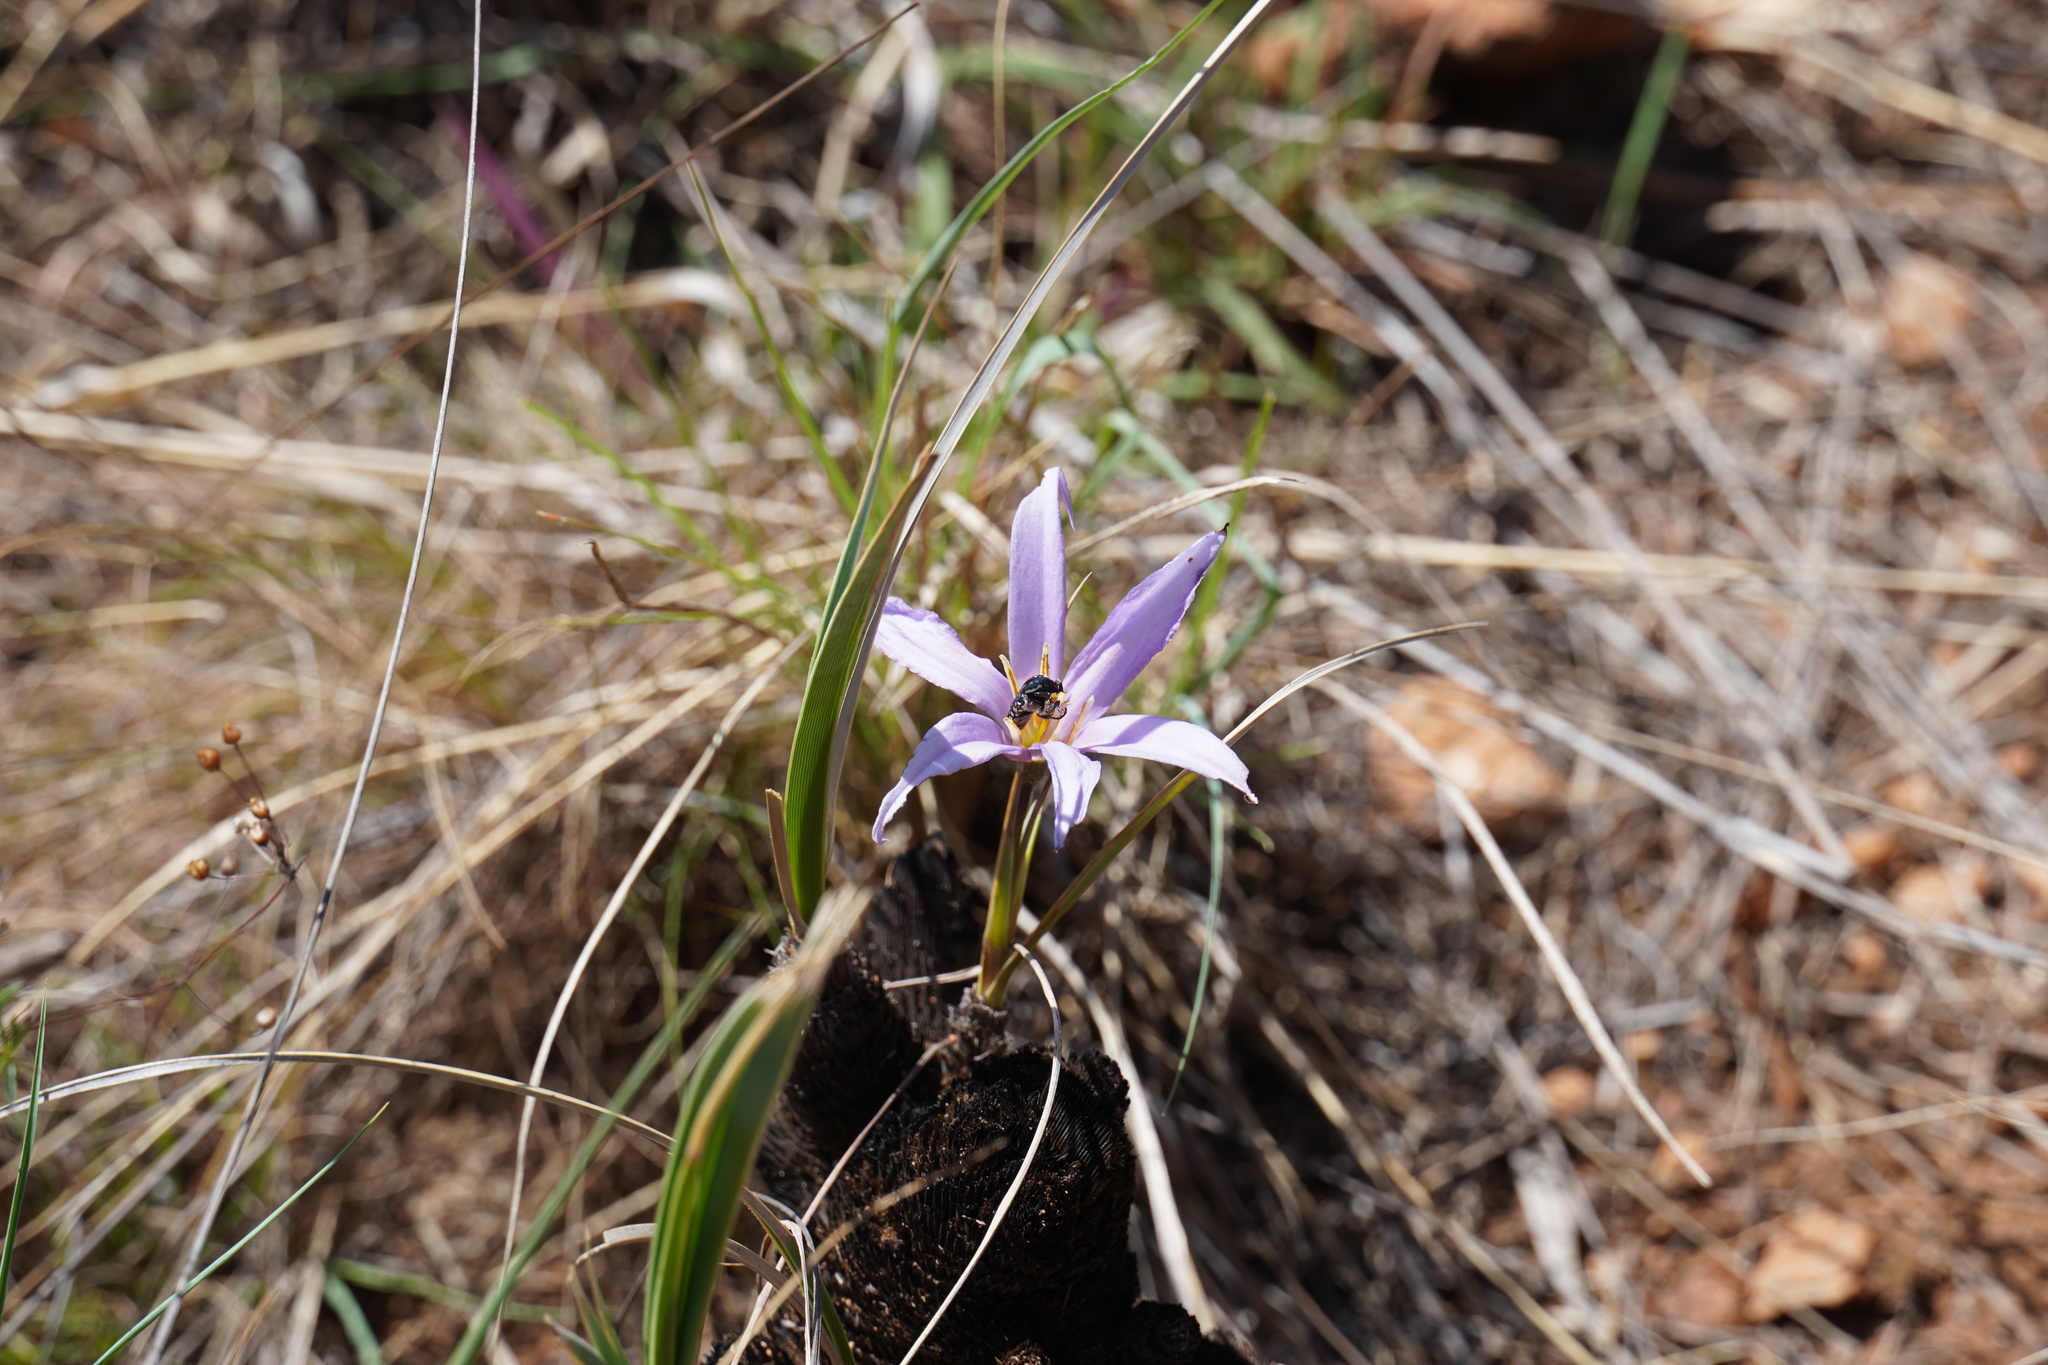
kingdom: Plantae
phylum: Tracheophyta
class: Liliopsida
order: Pandanales
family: Velloziaceae
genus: Xerophyta
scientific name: Xerophyta retinervis
